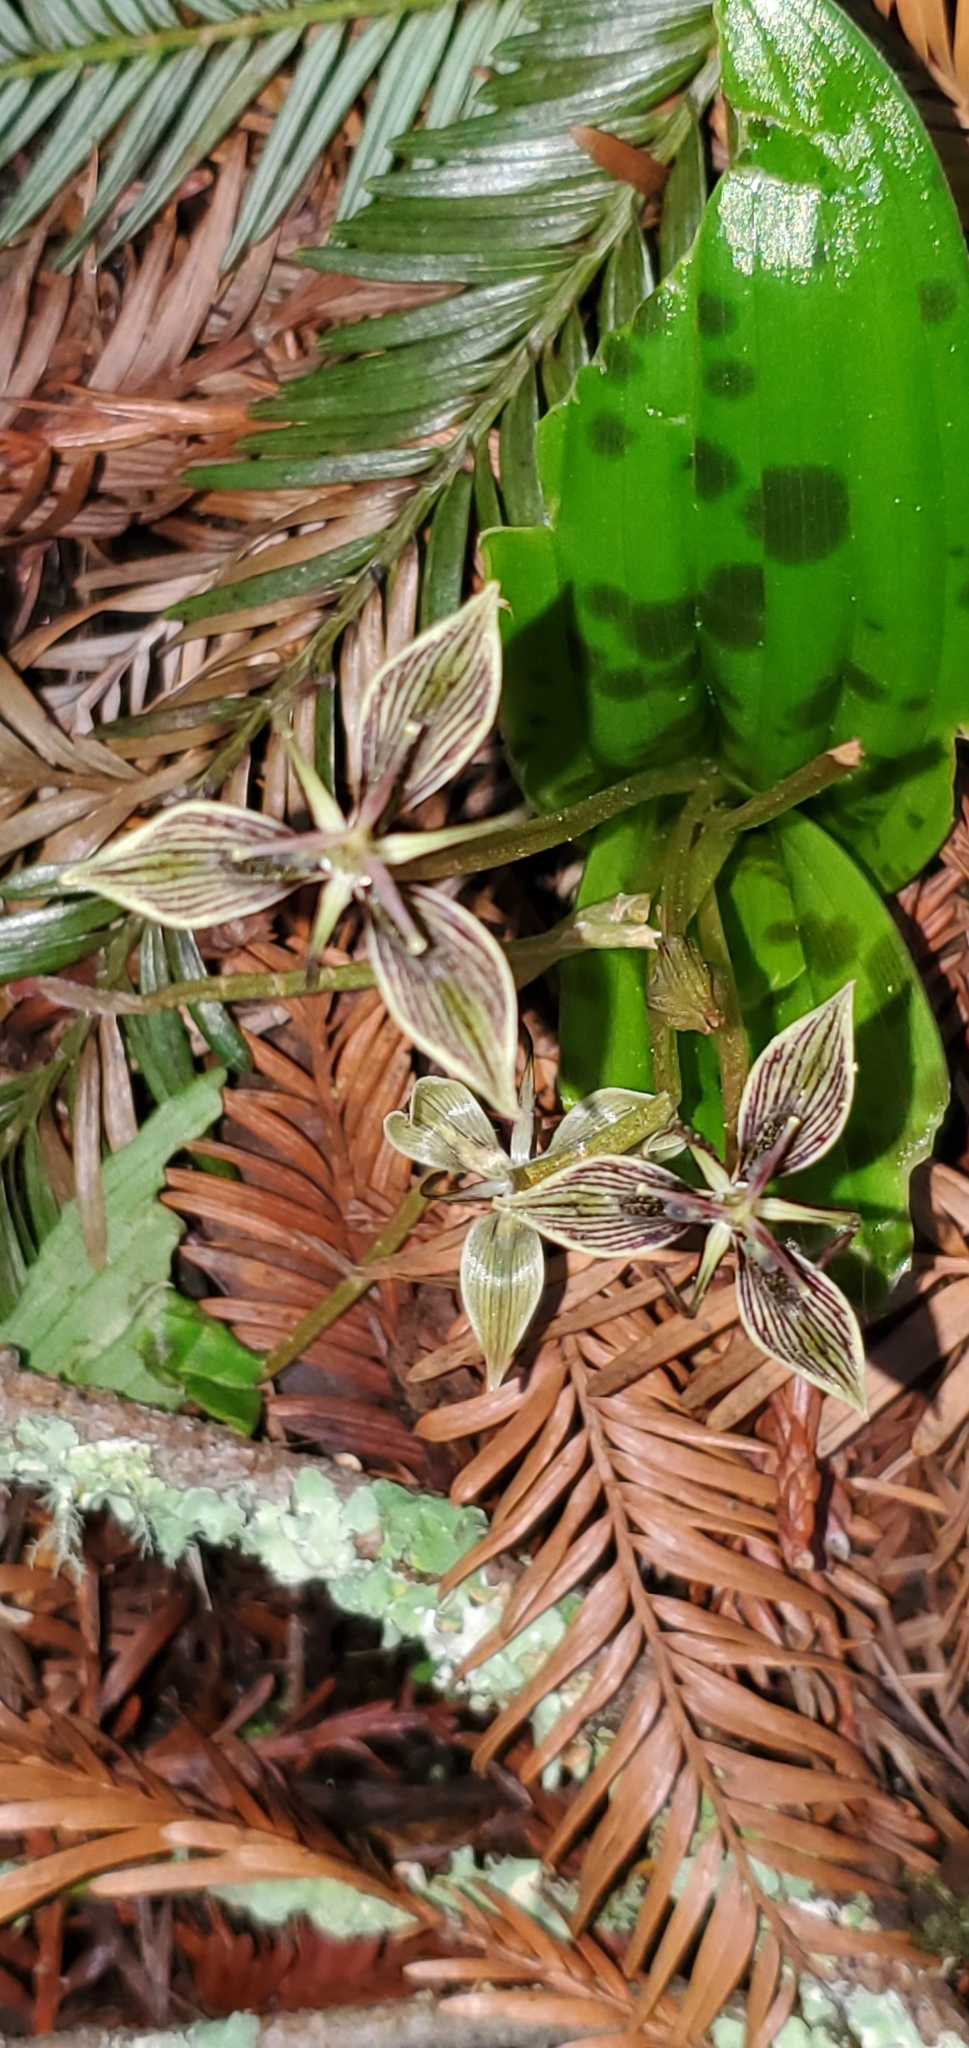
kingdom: Plantae
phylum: Tracheophyta
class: Liliopsida
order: Liliales
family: Liliaceae
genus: Scoliopus
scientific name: Scoliopus bigelovii
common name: Foetid adder's-tongue
